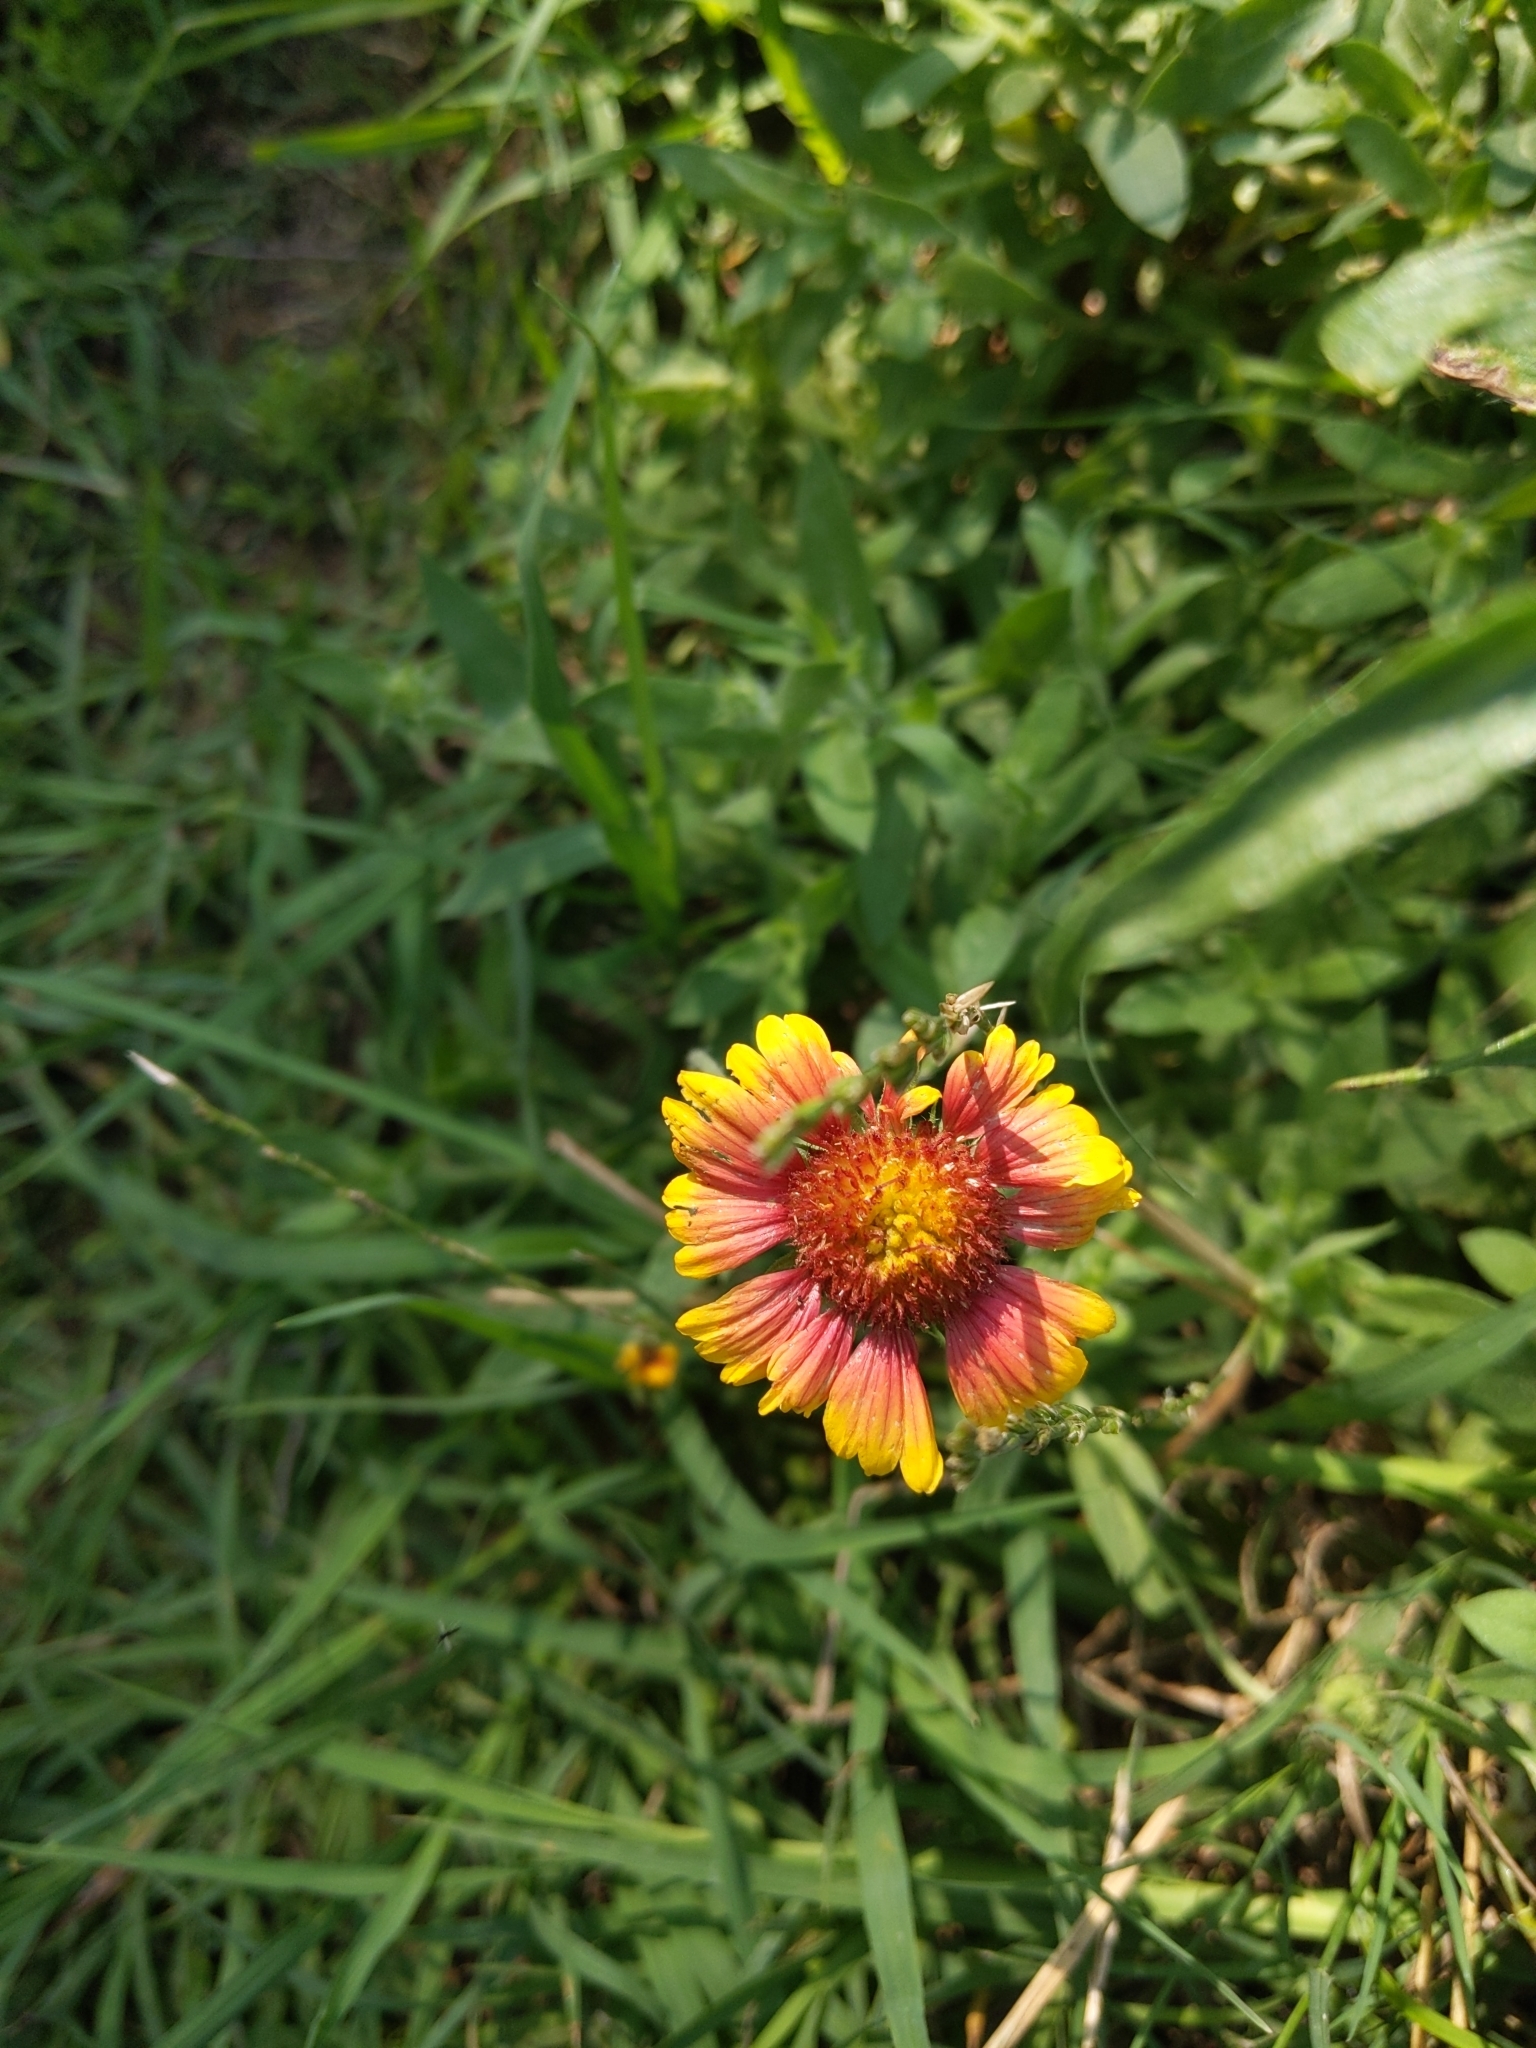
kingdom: Plantae
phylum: Tracheophyta
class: Magnoliopsida
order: Asterales
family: Asteraceae
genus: Gaillardia
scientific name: Gaillardia pulchella
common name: Firewheel
